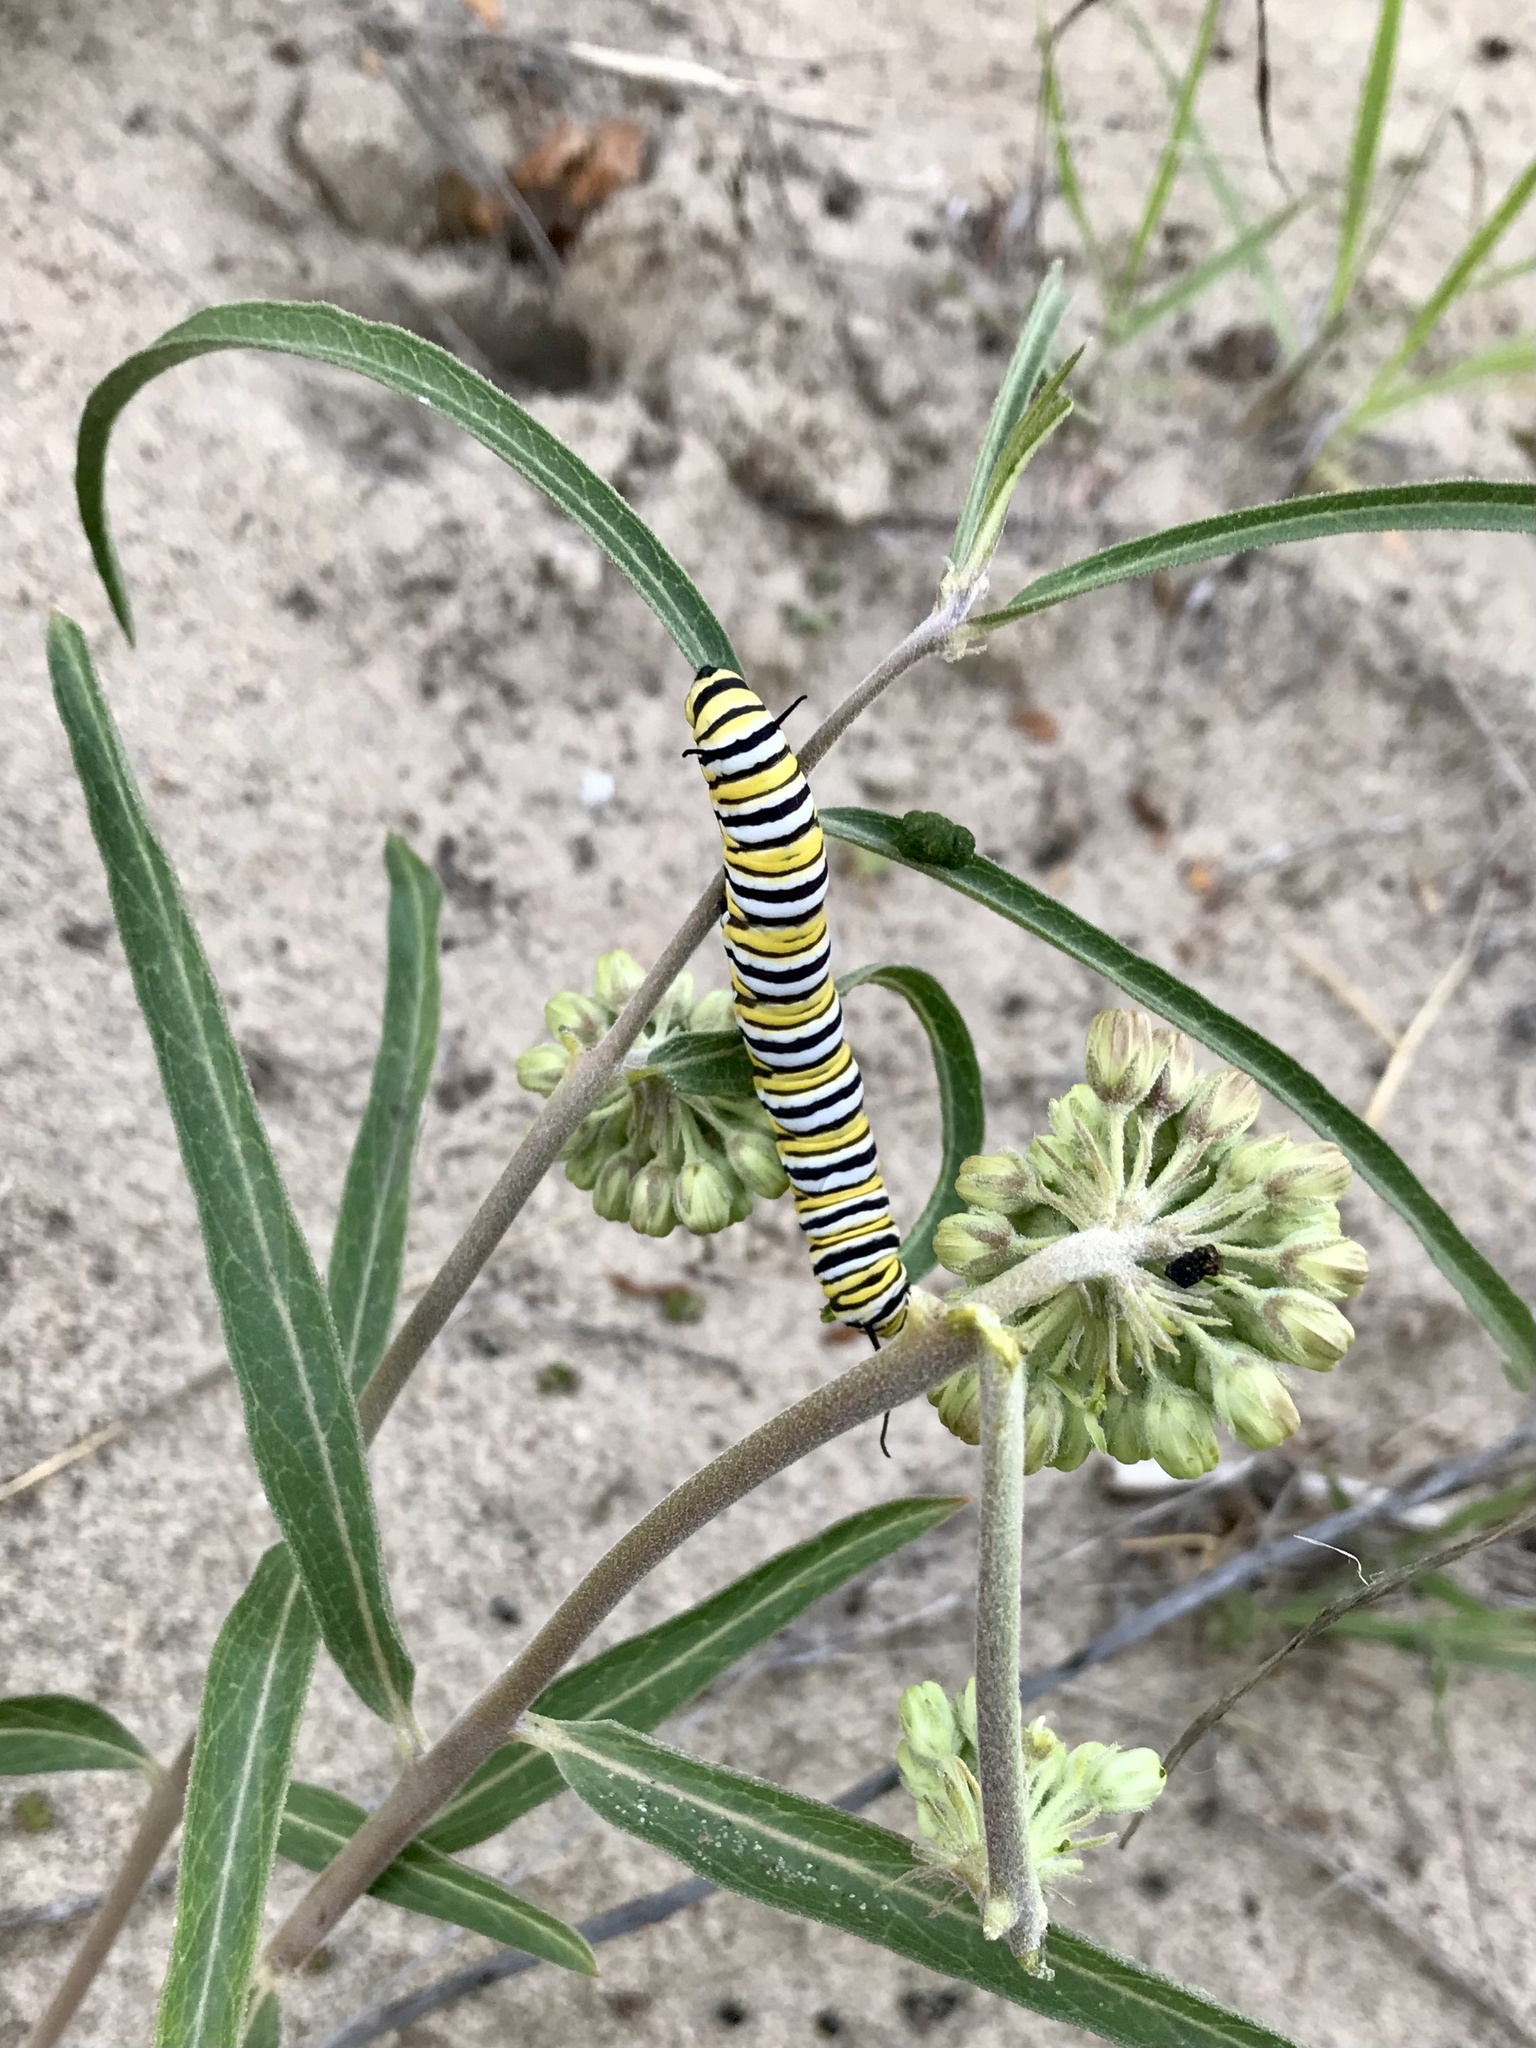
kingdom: Animalia
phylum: Arthropoda
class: Insecta
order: Lepidoptera
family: Nymphalidae
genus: Danaus
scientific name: Danaus plexippus
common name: Monarch
